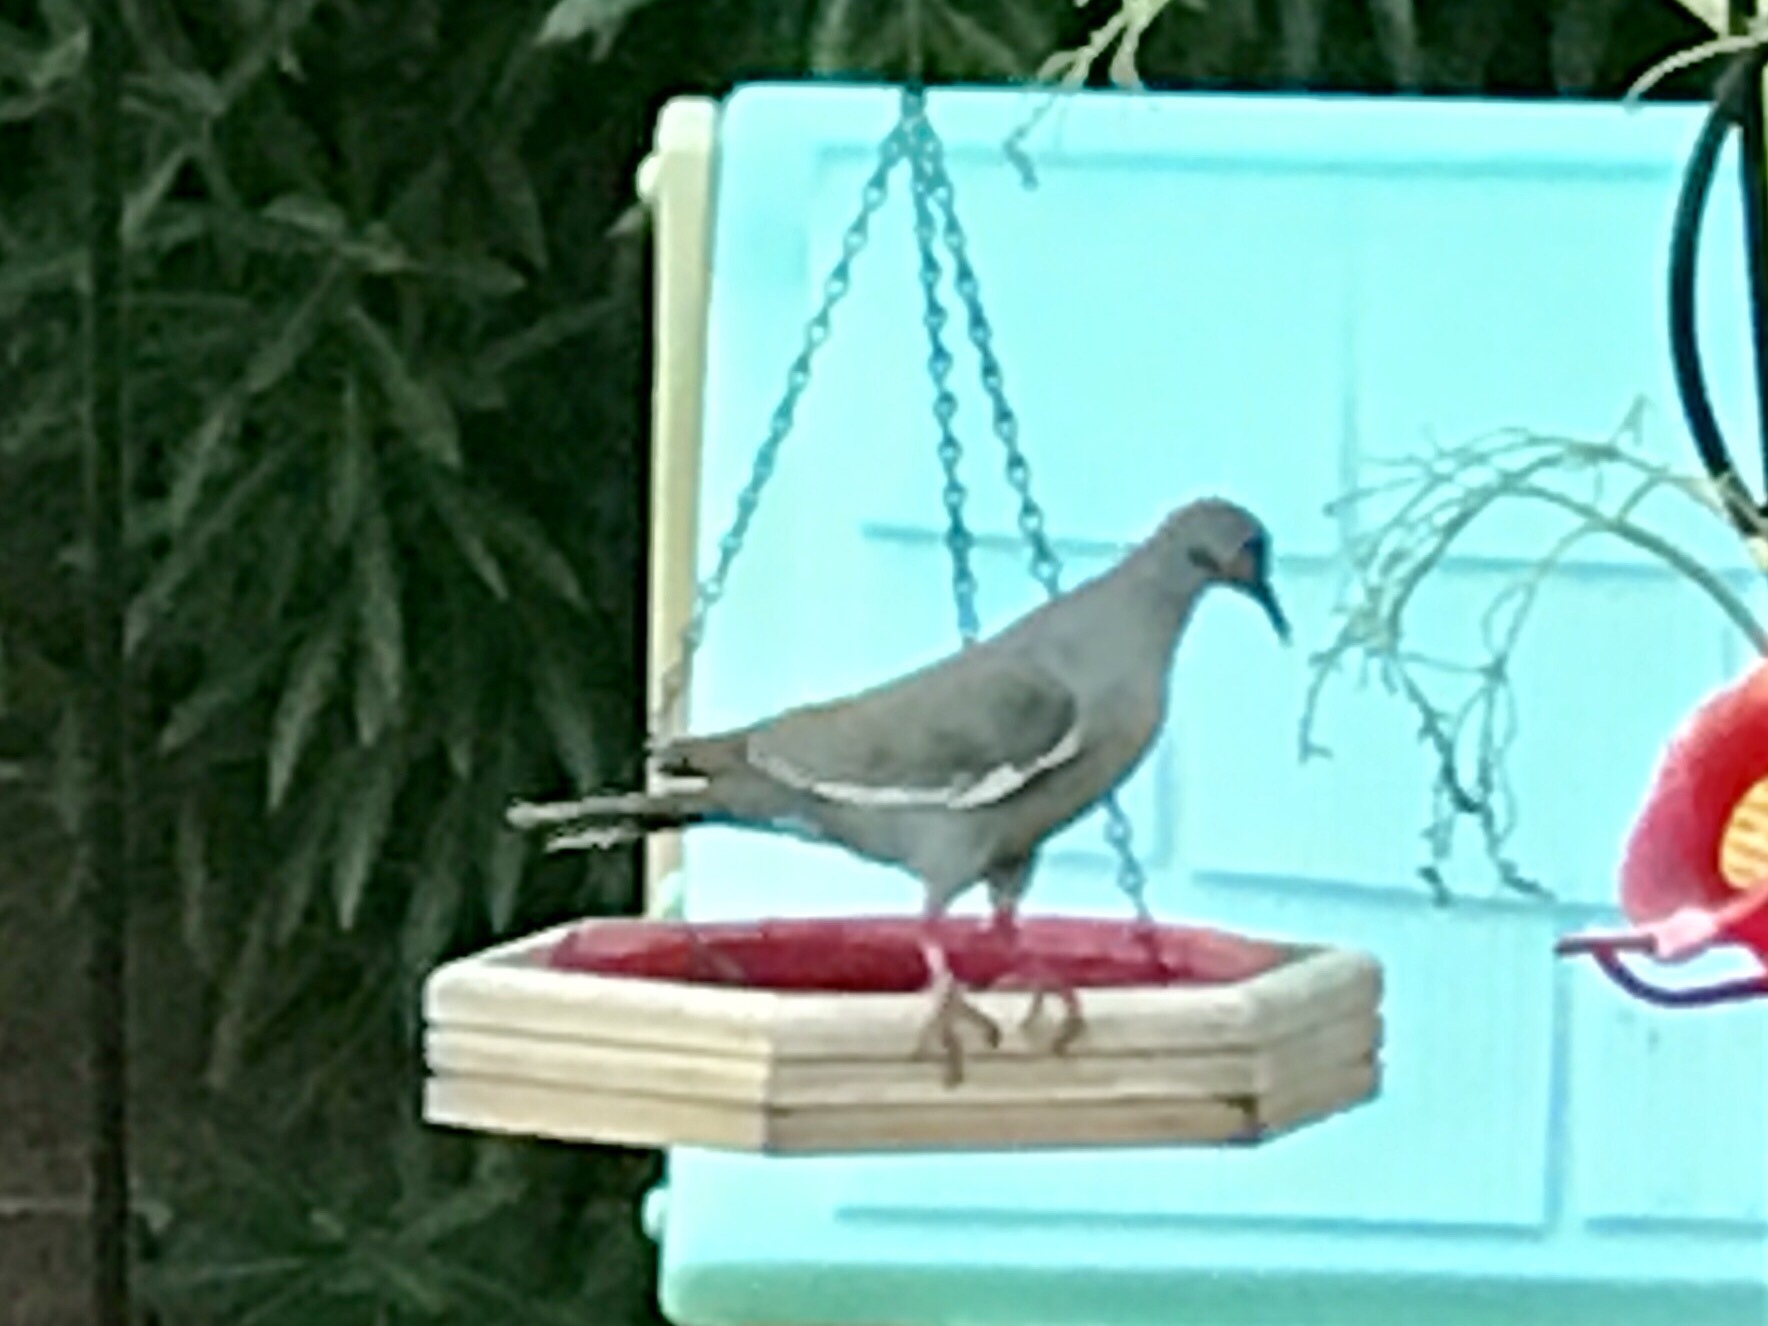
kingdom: Animalia
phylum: Chordata
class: Aves
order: Columbiformes
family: Columbidae
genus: Zenaida
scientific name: Zenaida asiatica
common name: White-winged dove
